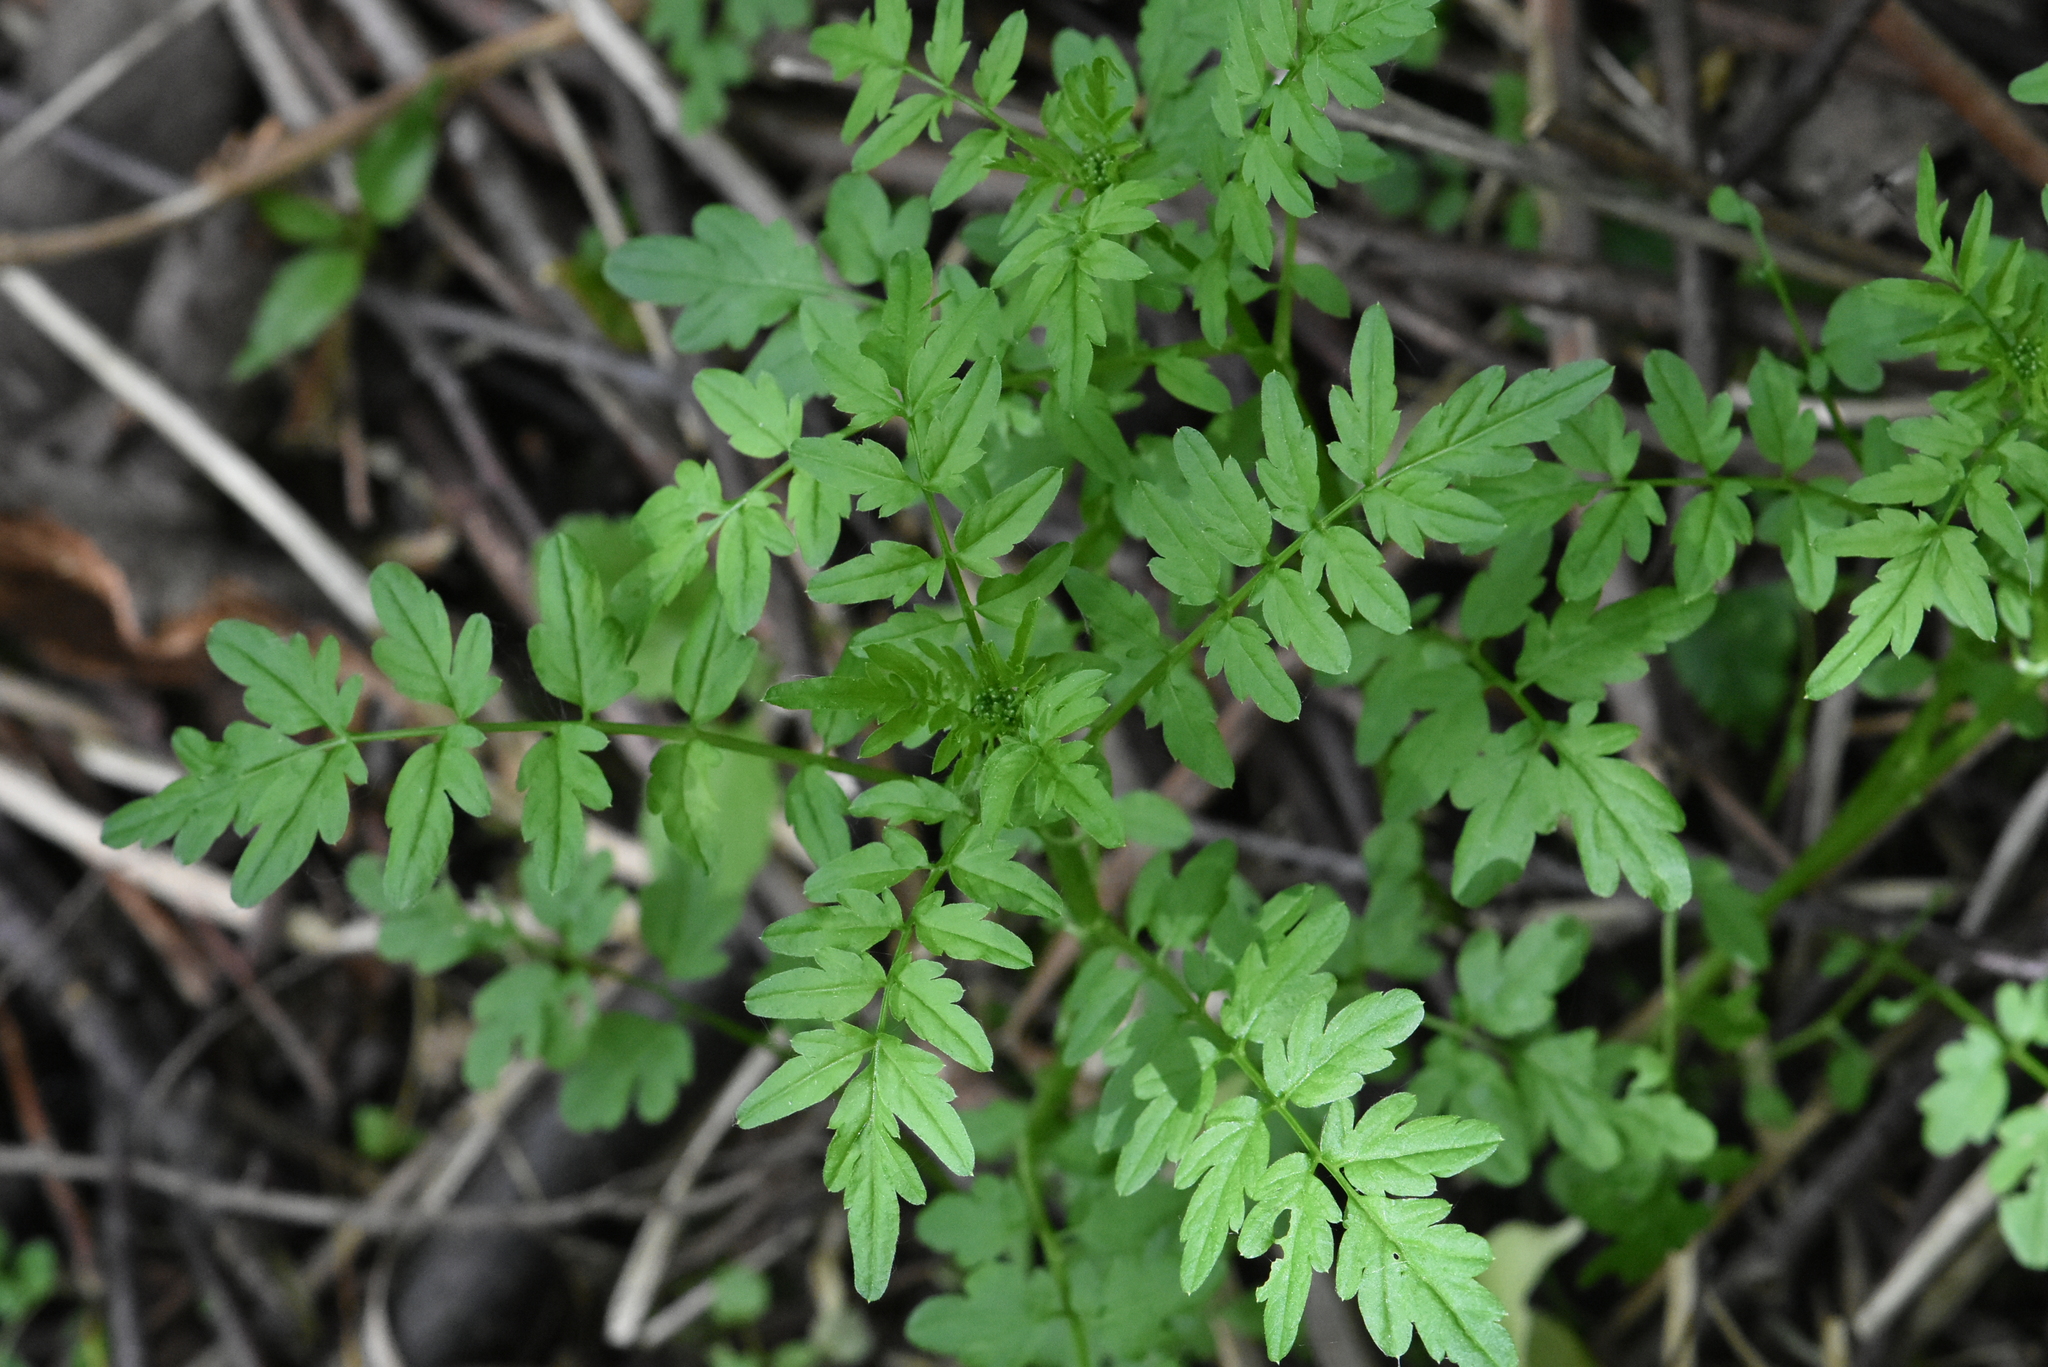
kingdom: Plantae
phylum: Tracheophyta
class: Magnoliopsida
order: Brassicales
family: Brassicaceae
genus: Cardamine
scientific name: Cardamine impatiens
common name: Narrow-leaved bitter-cress
